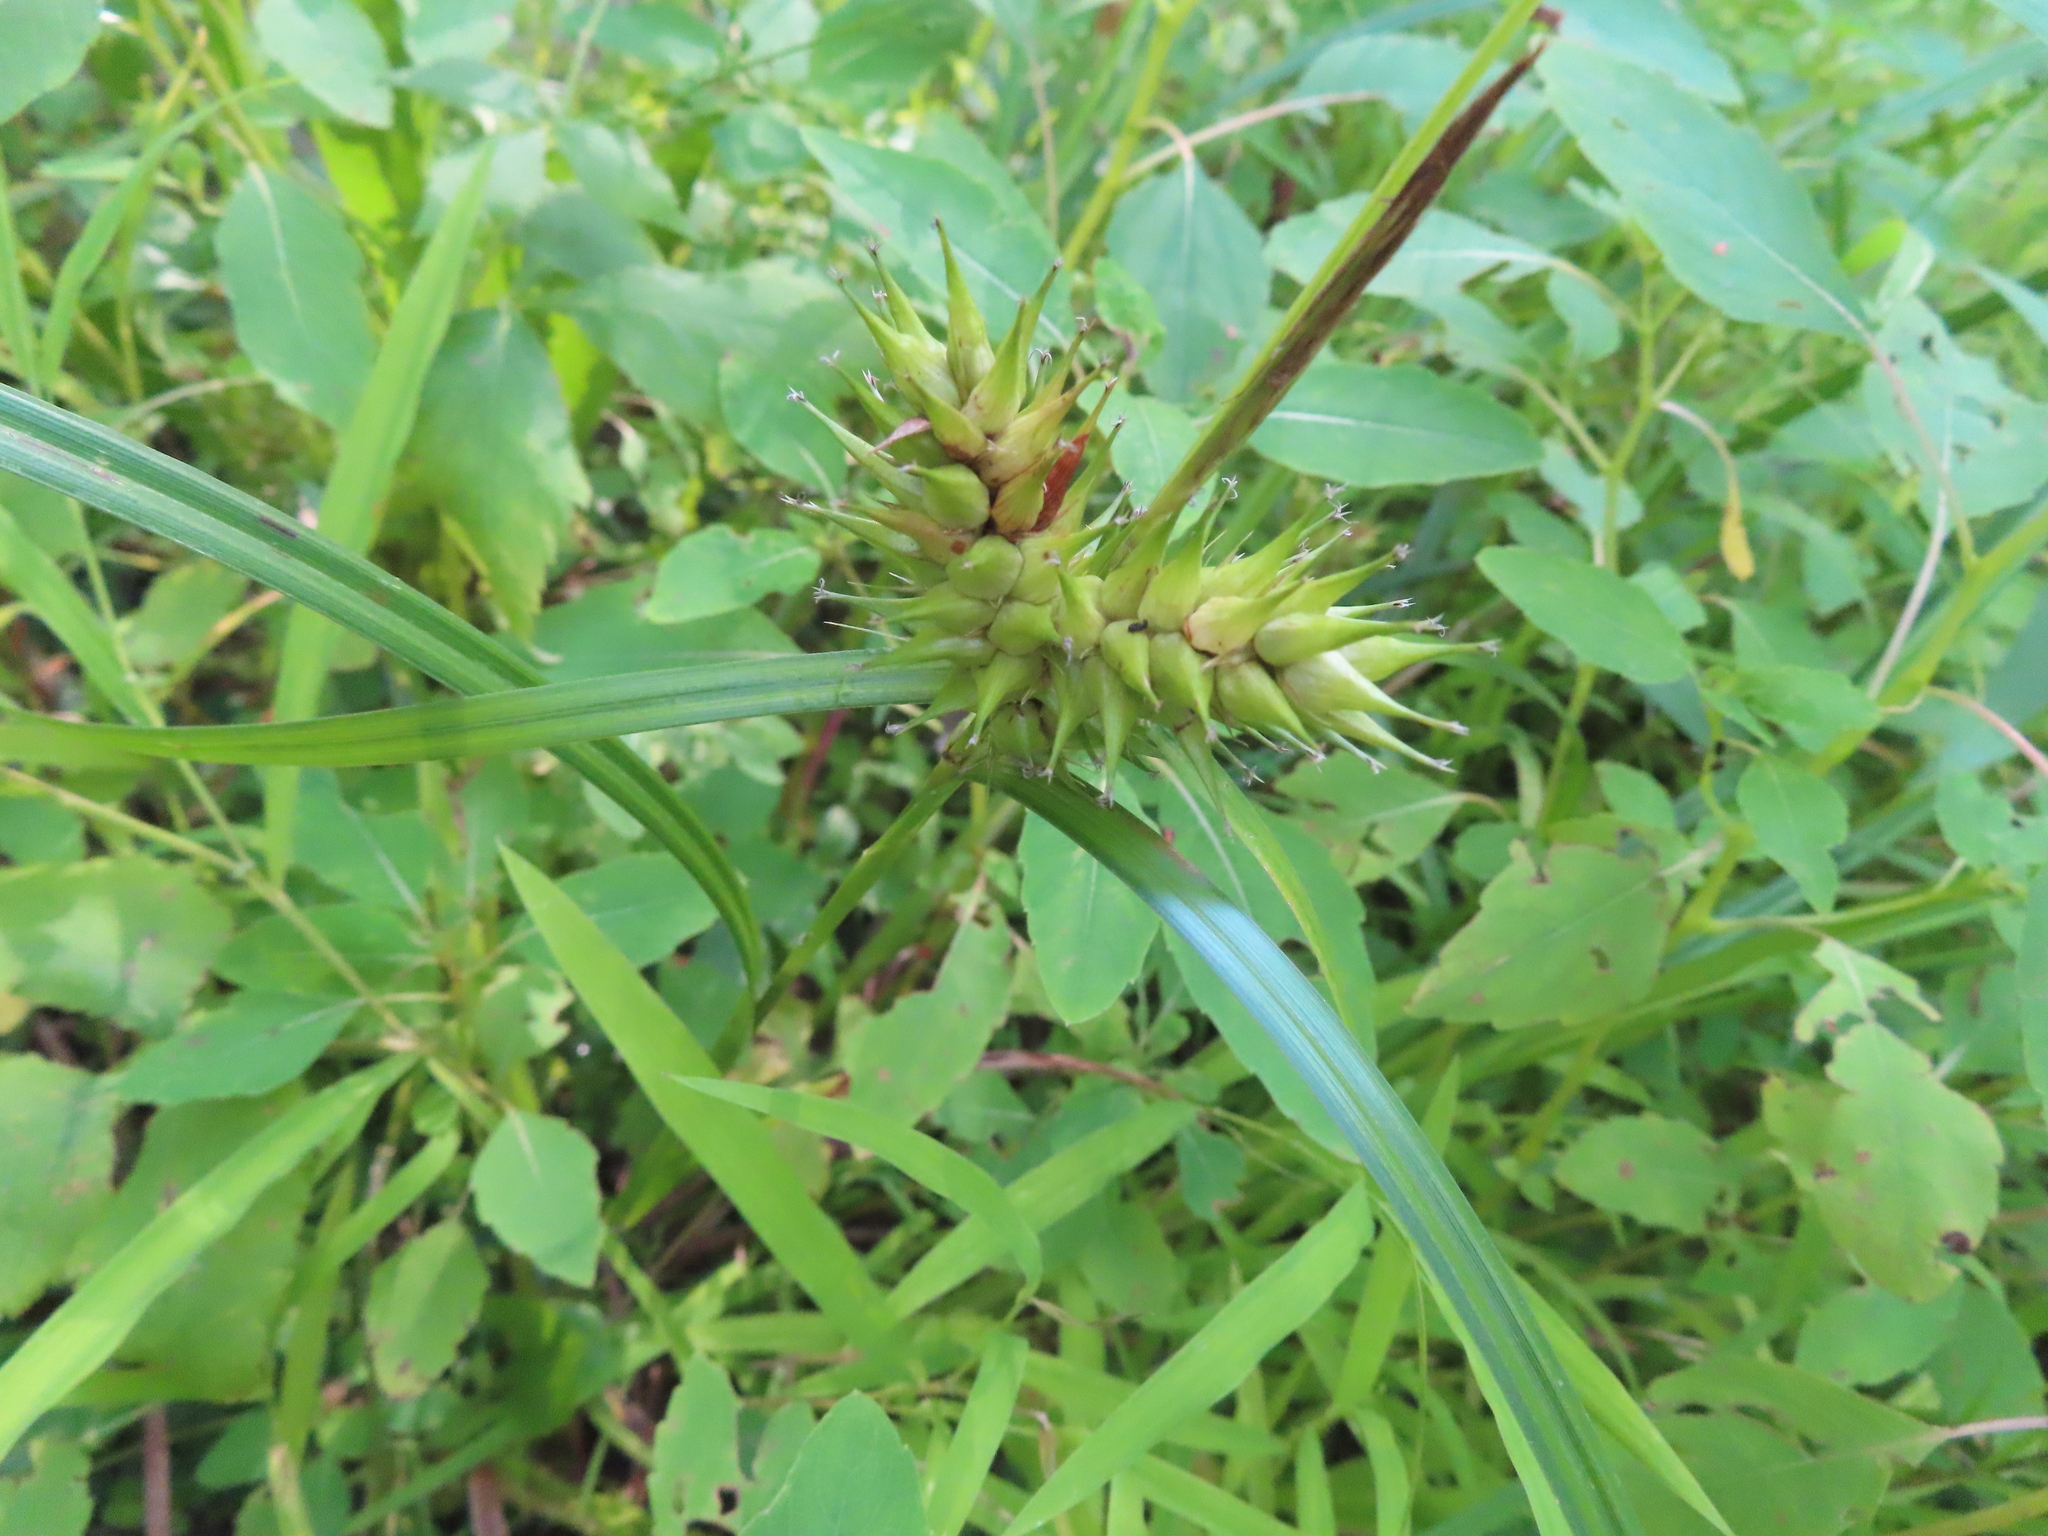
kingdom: Plantae
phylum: Tracheophyta
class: Liliopsida
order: Poales
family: Cyperaceae
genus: Carex
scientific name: Carex lupulina
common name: Hop sedge
